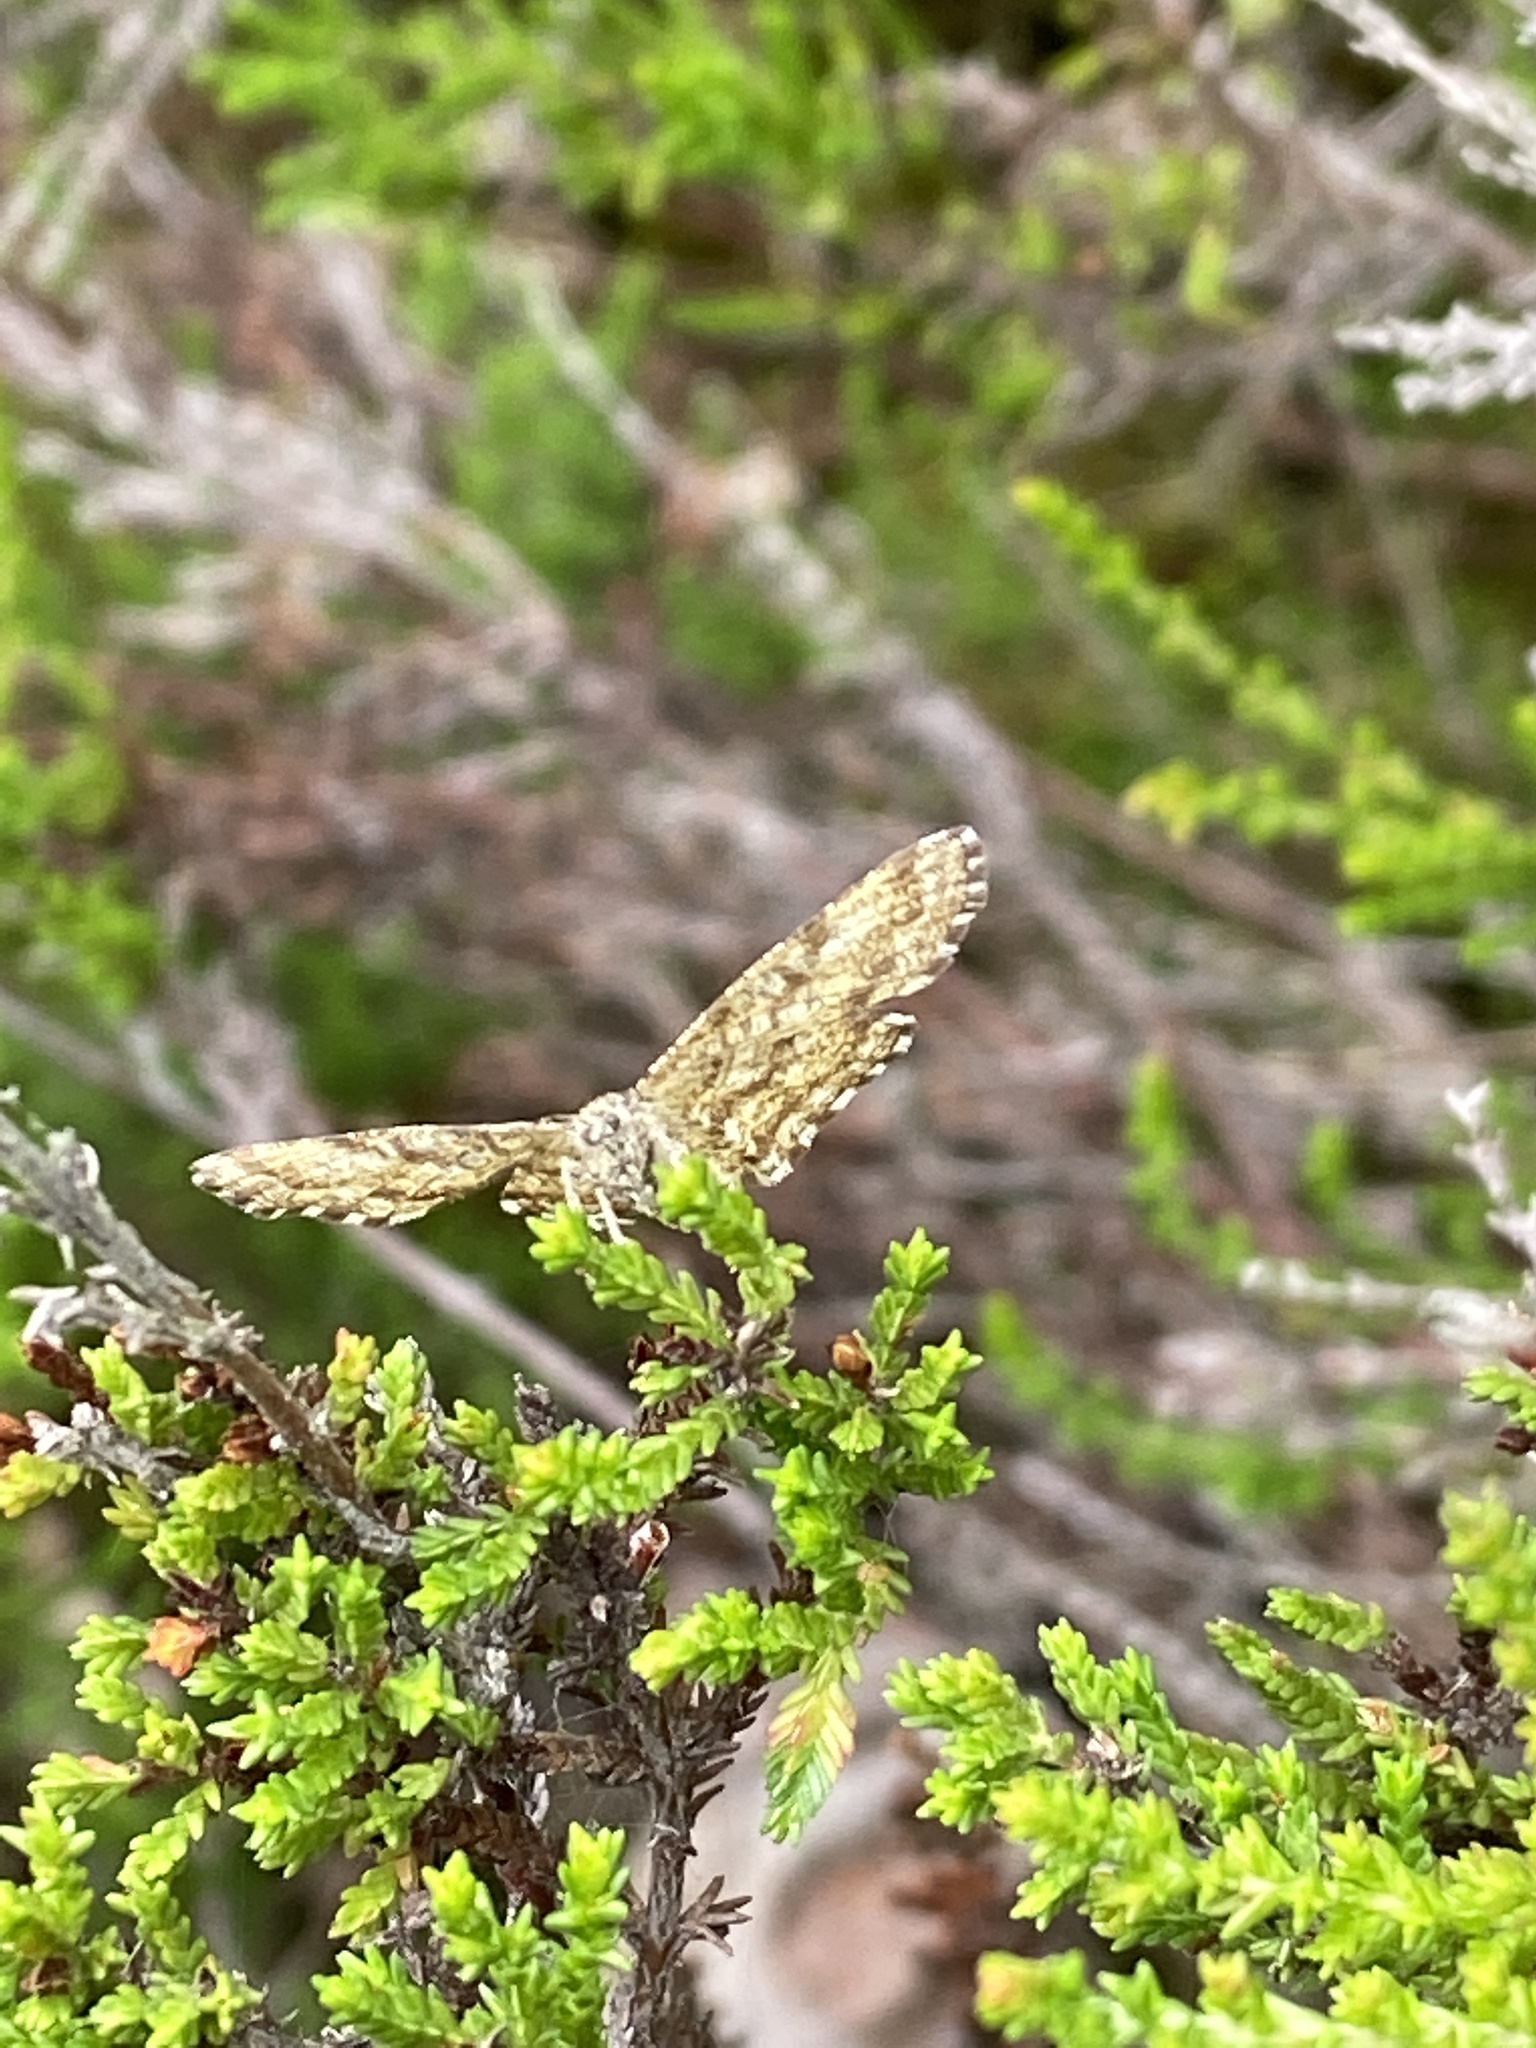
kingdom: Animalia
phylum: Arthropoda
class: Insecta
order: Lepidoptera
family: Geometridae
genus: Ematurga
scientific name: Ematurga atomaria
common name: Common heath
